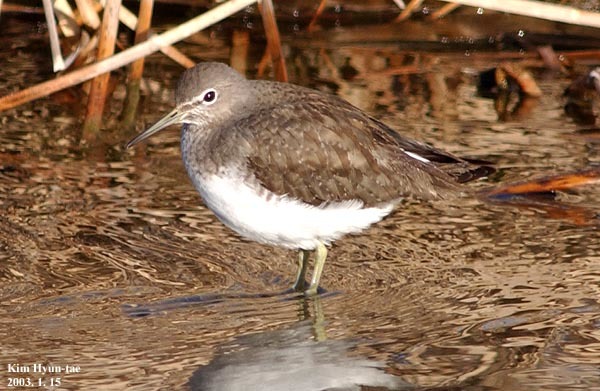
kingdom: Animalia
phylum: Chordata
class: Aves
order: Charadriiformes
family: Scolopacidae
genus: Tringa
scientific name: Tringa ochropus
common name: Green sandpiper
